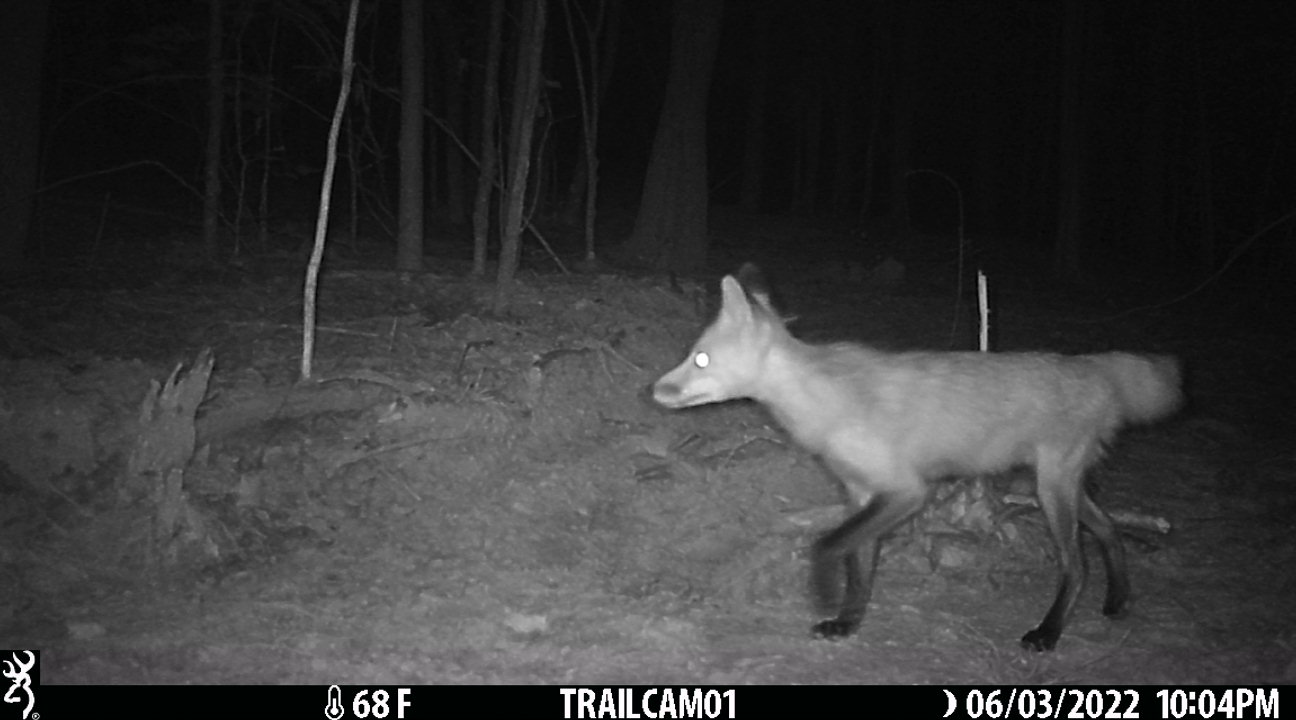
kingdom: Animalia
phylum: Chordata
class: Mammalia
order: Carnivora
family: Canidae
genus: Vulpes
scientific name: Vulpes vulpes
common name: Red fox
